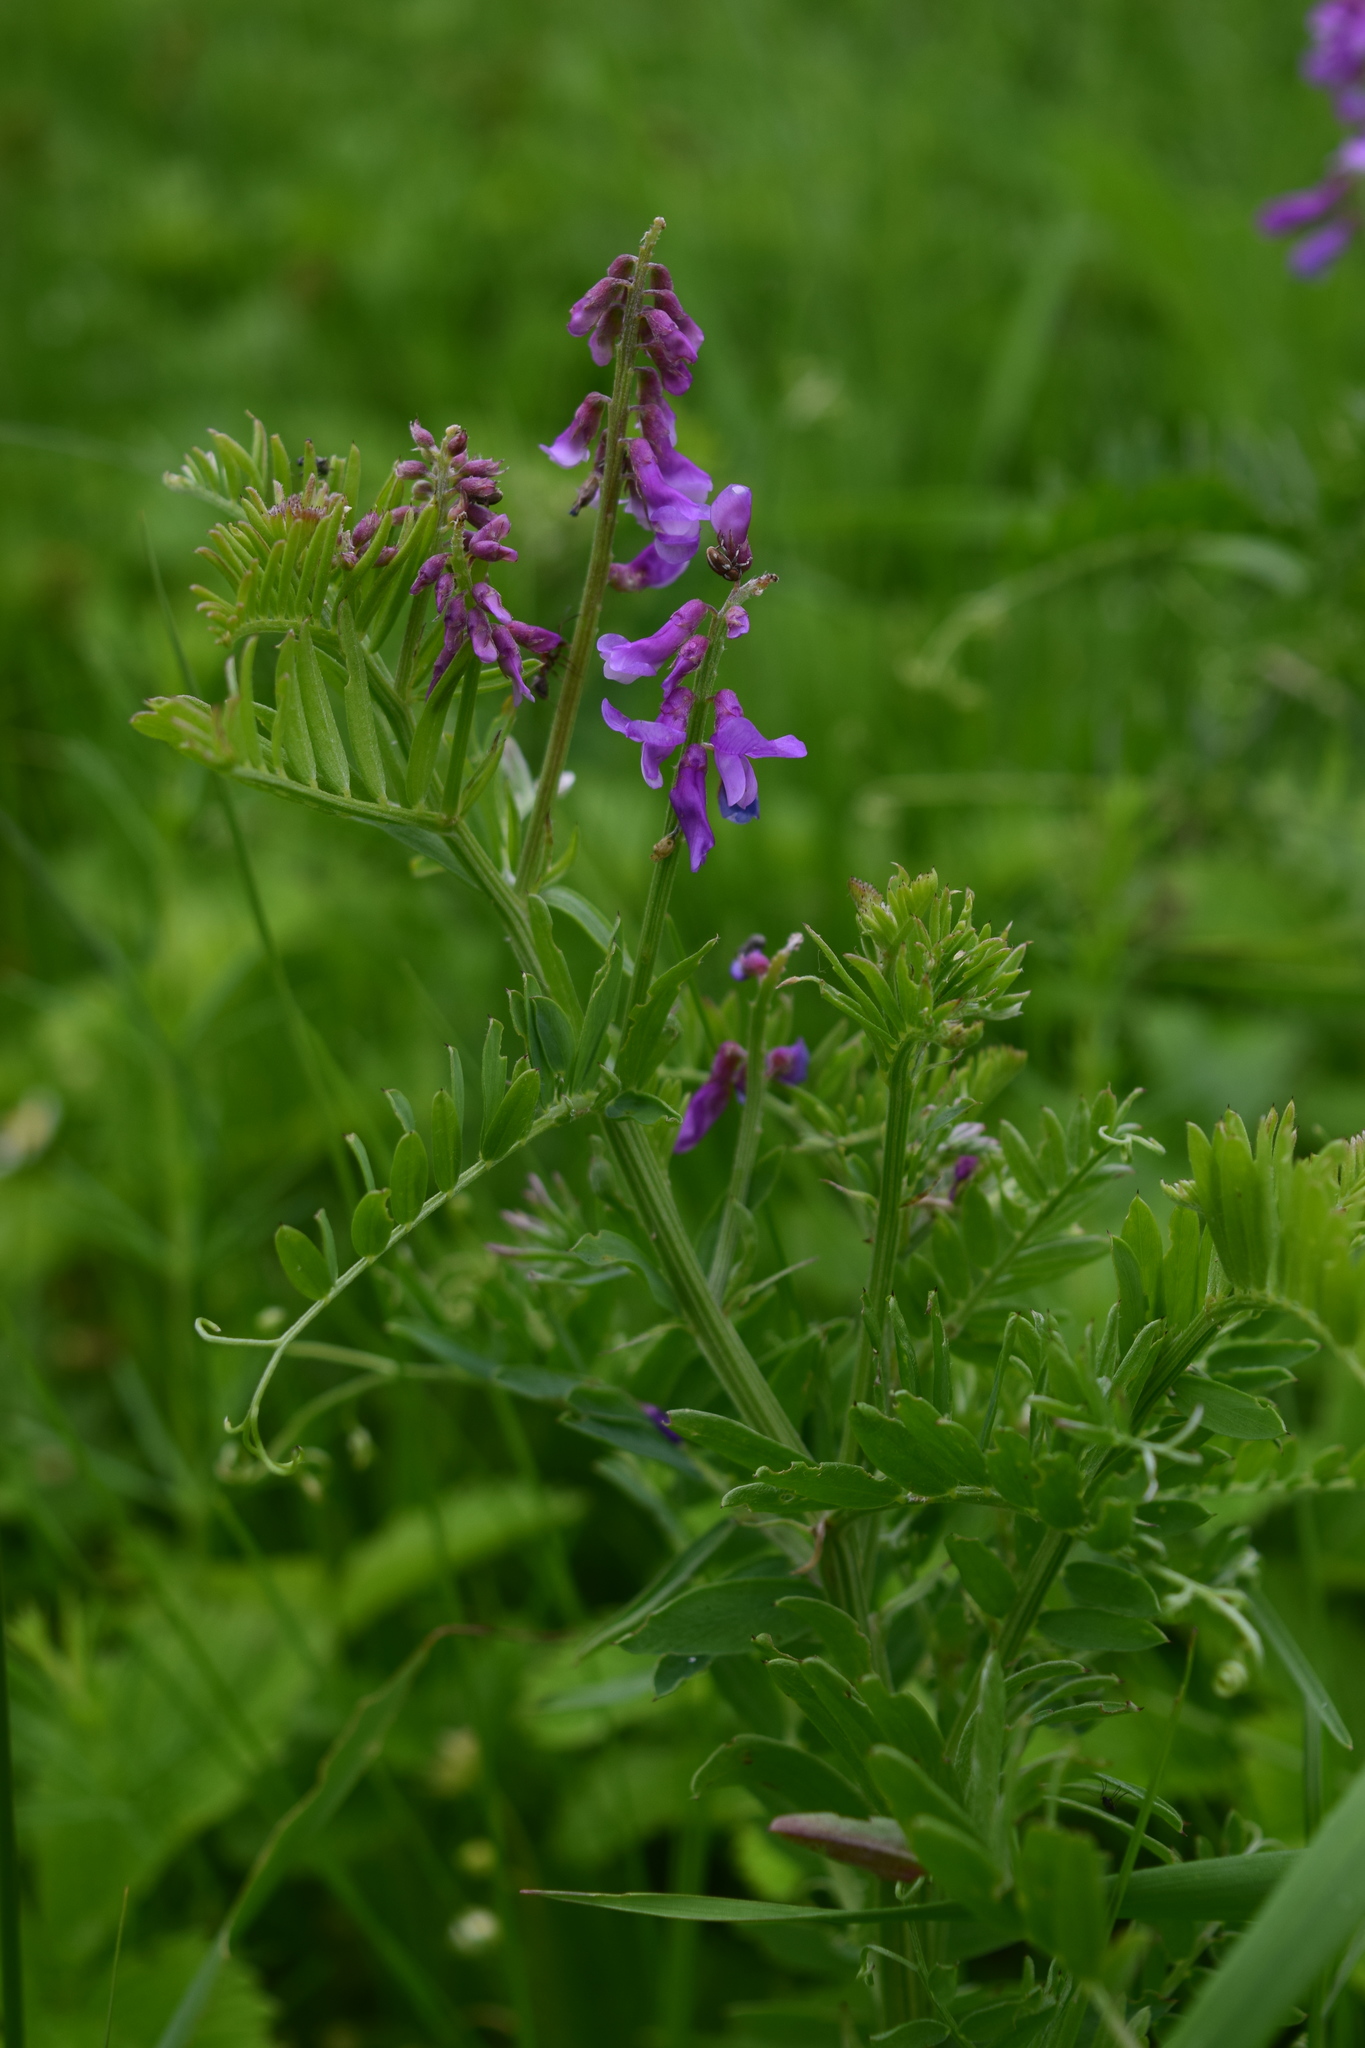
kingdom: Plantae
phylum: Tracheophyta
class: Magnoliopsida
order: Fabales
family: Fabaceae
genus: Vicia
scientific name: Vicia tenuifolia
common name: Fine-leaved vetch
